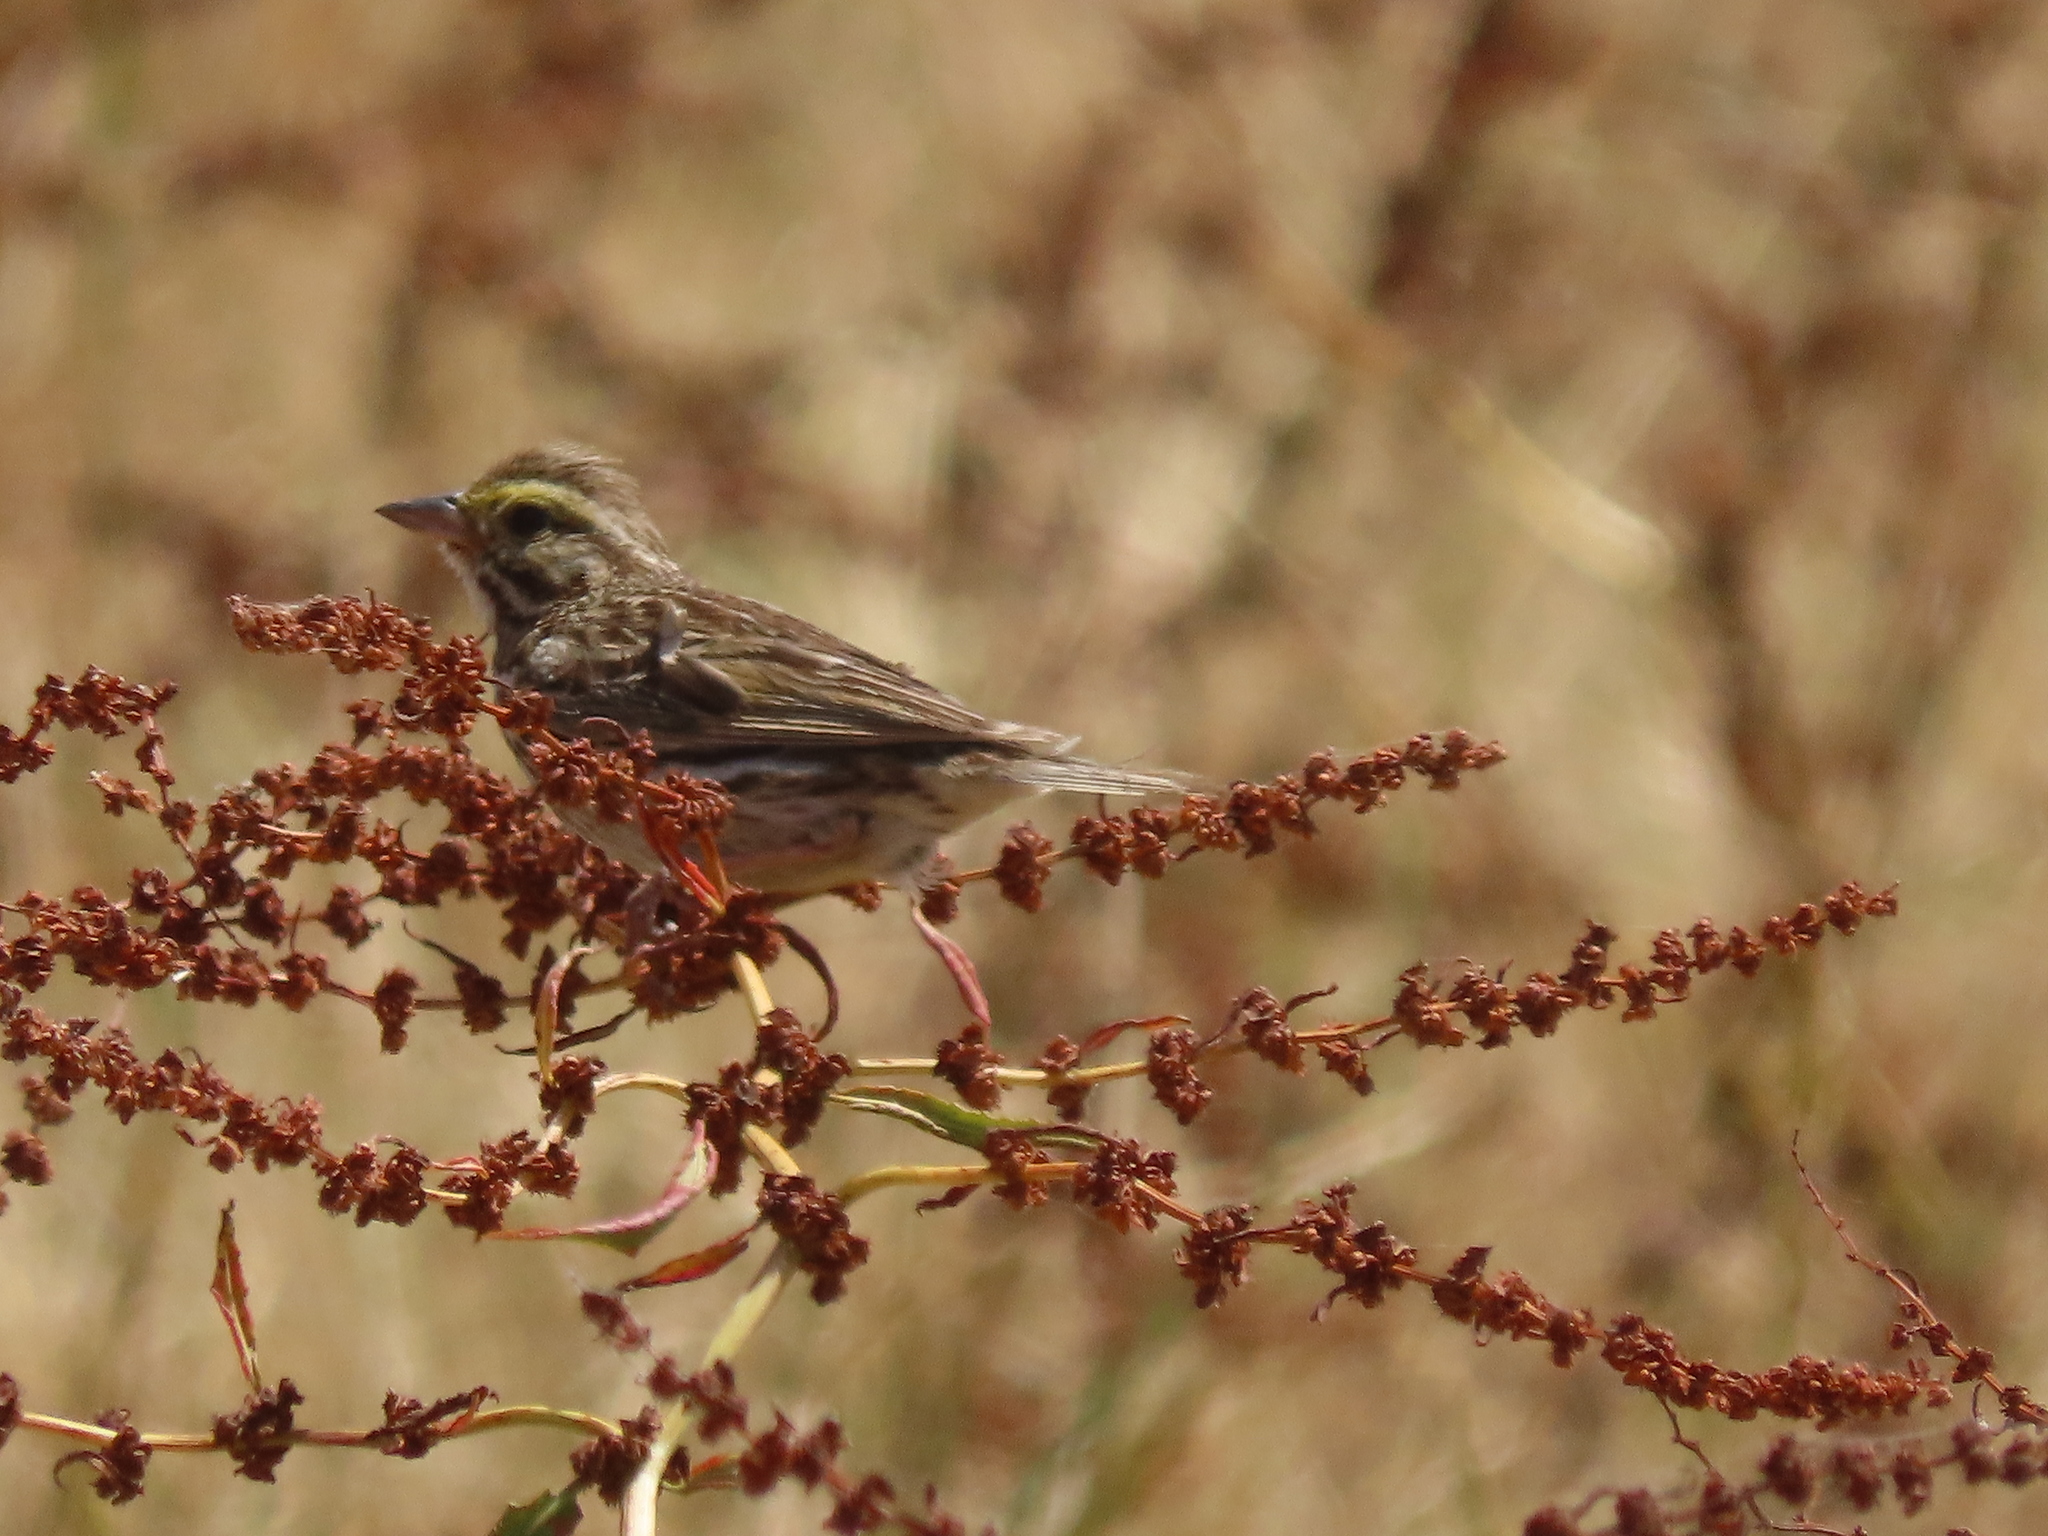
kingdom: Animalia
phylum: Chordata
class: Aves
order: Passeriformes
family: Passerellidae
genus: Passerculus
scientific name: Passerculus sandwichensis
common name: Savannah sparrow
